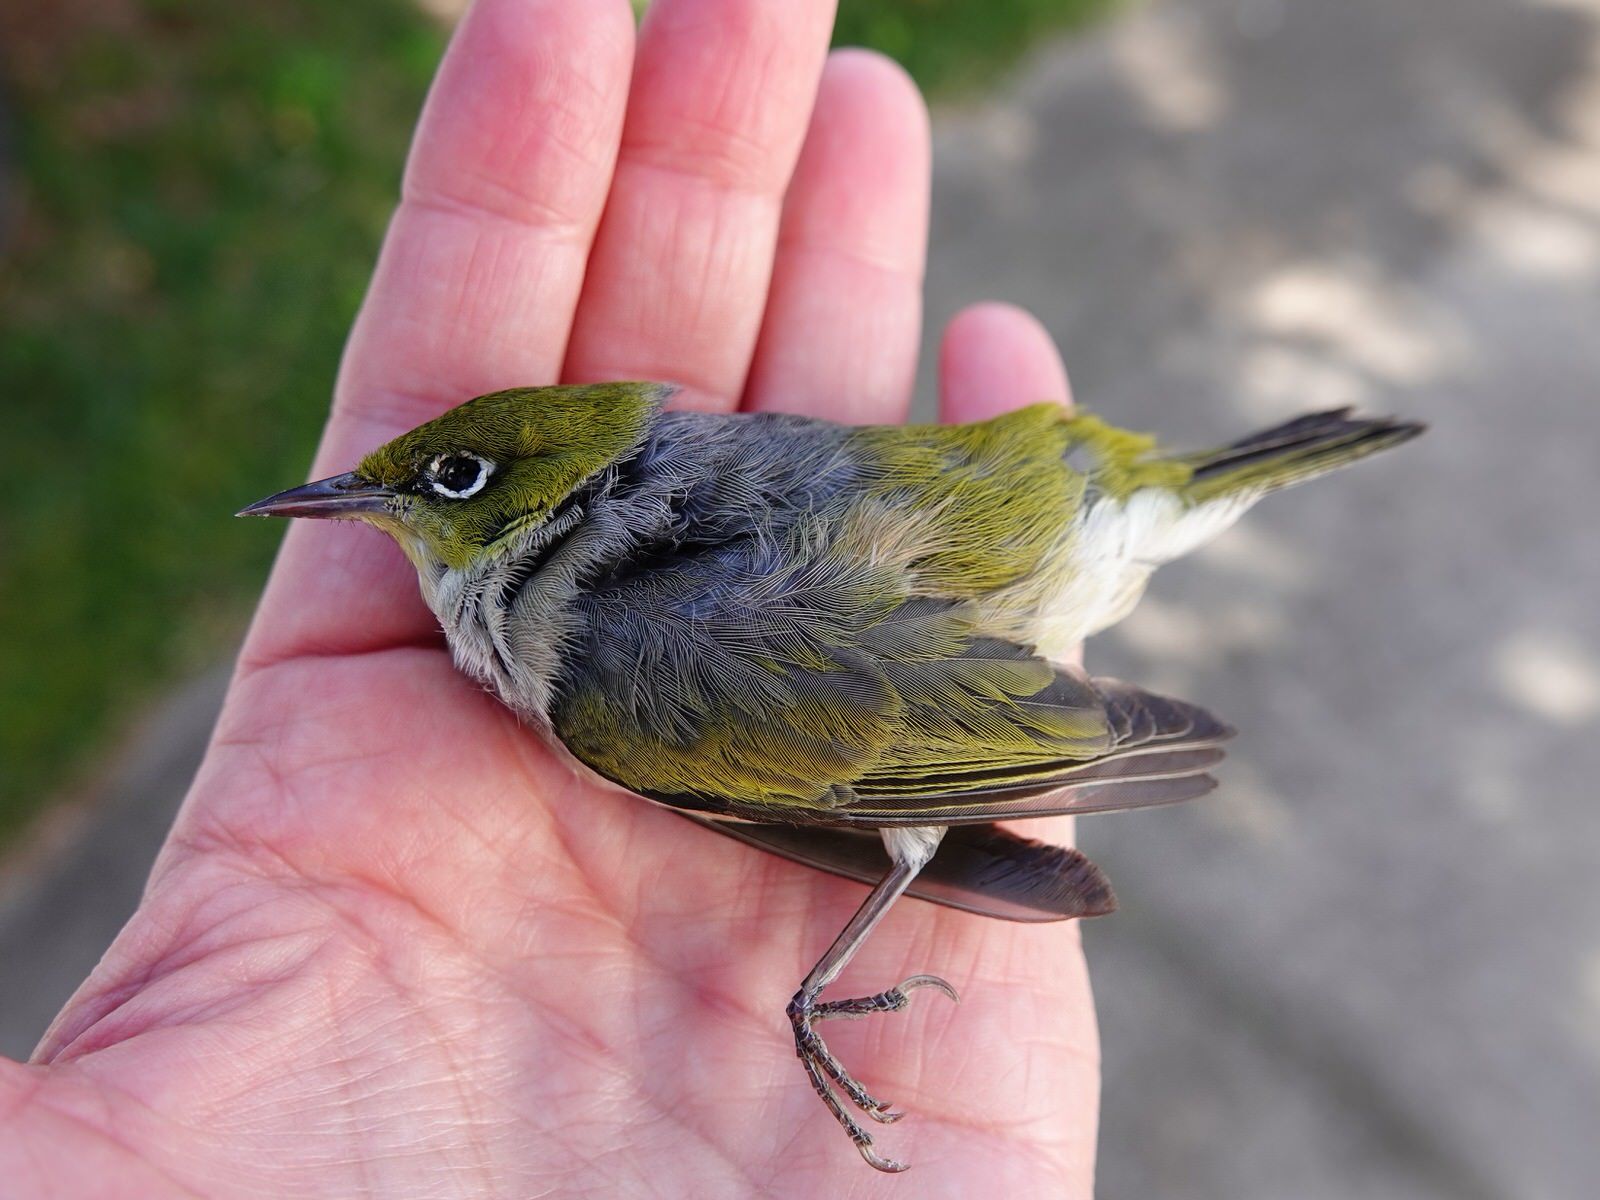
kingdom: Animalia
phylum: Chordata
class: Aves
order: Passeriformes
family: Zosteropidae
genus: Zosterops
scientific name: Zosterops lateralis
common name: Silvereye
